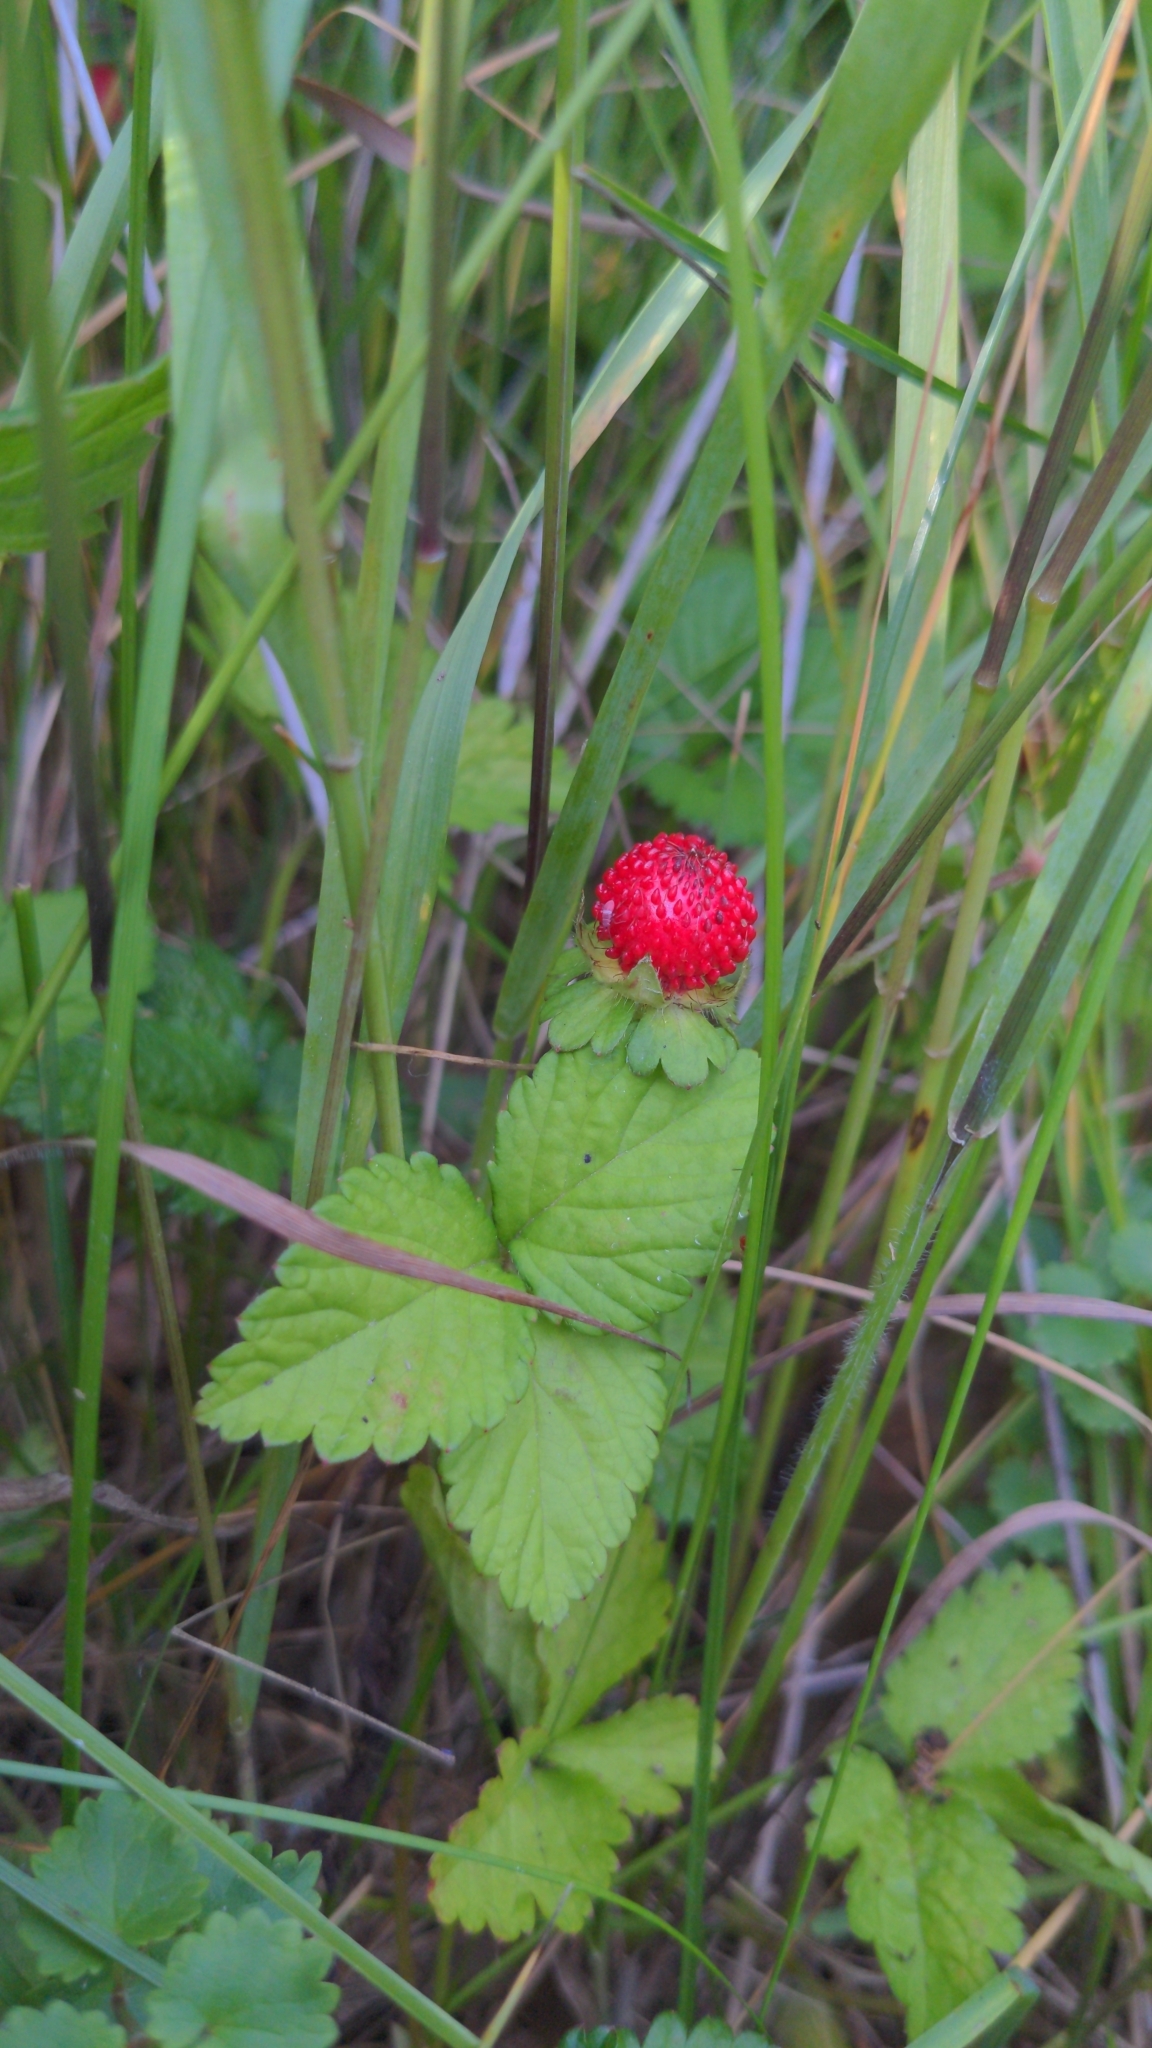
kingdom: Plantae
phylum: Tracheophyta
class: Magnoliopsida
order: Rosales
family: Rosaceae
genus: Potentilla
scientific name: Potentilla indica
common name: Yellow-flowered strawberry
